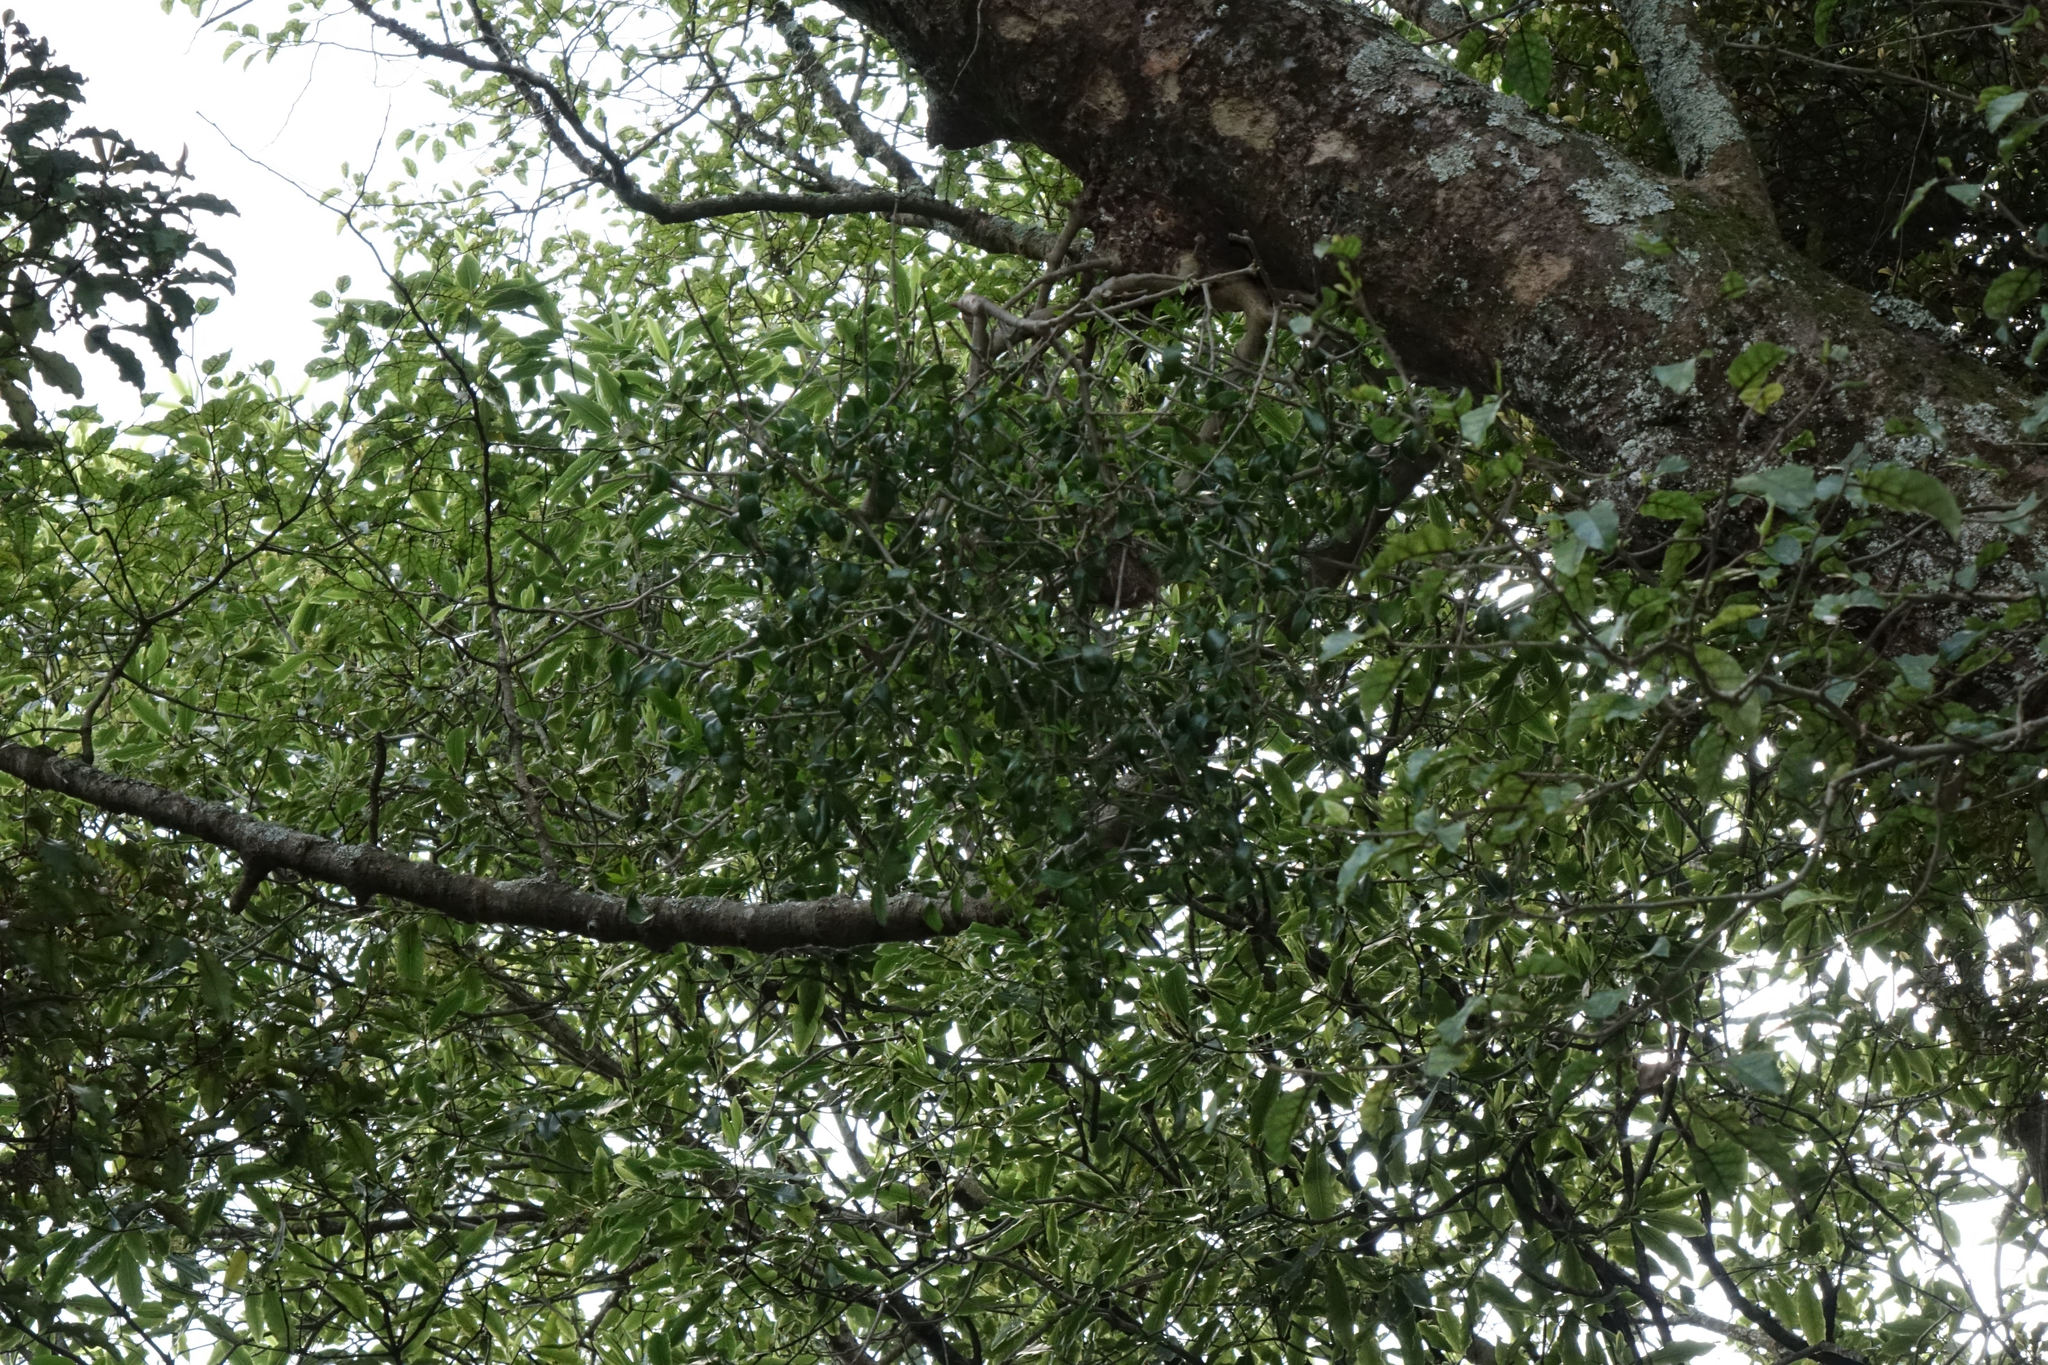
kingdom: Plantae
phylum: Tracheophyta
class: Magnoliopsida
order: Santalales
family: Loranthaceae
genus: Tupeia
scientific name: Tupeia antarctica
